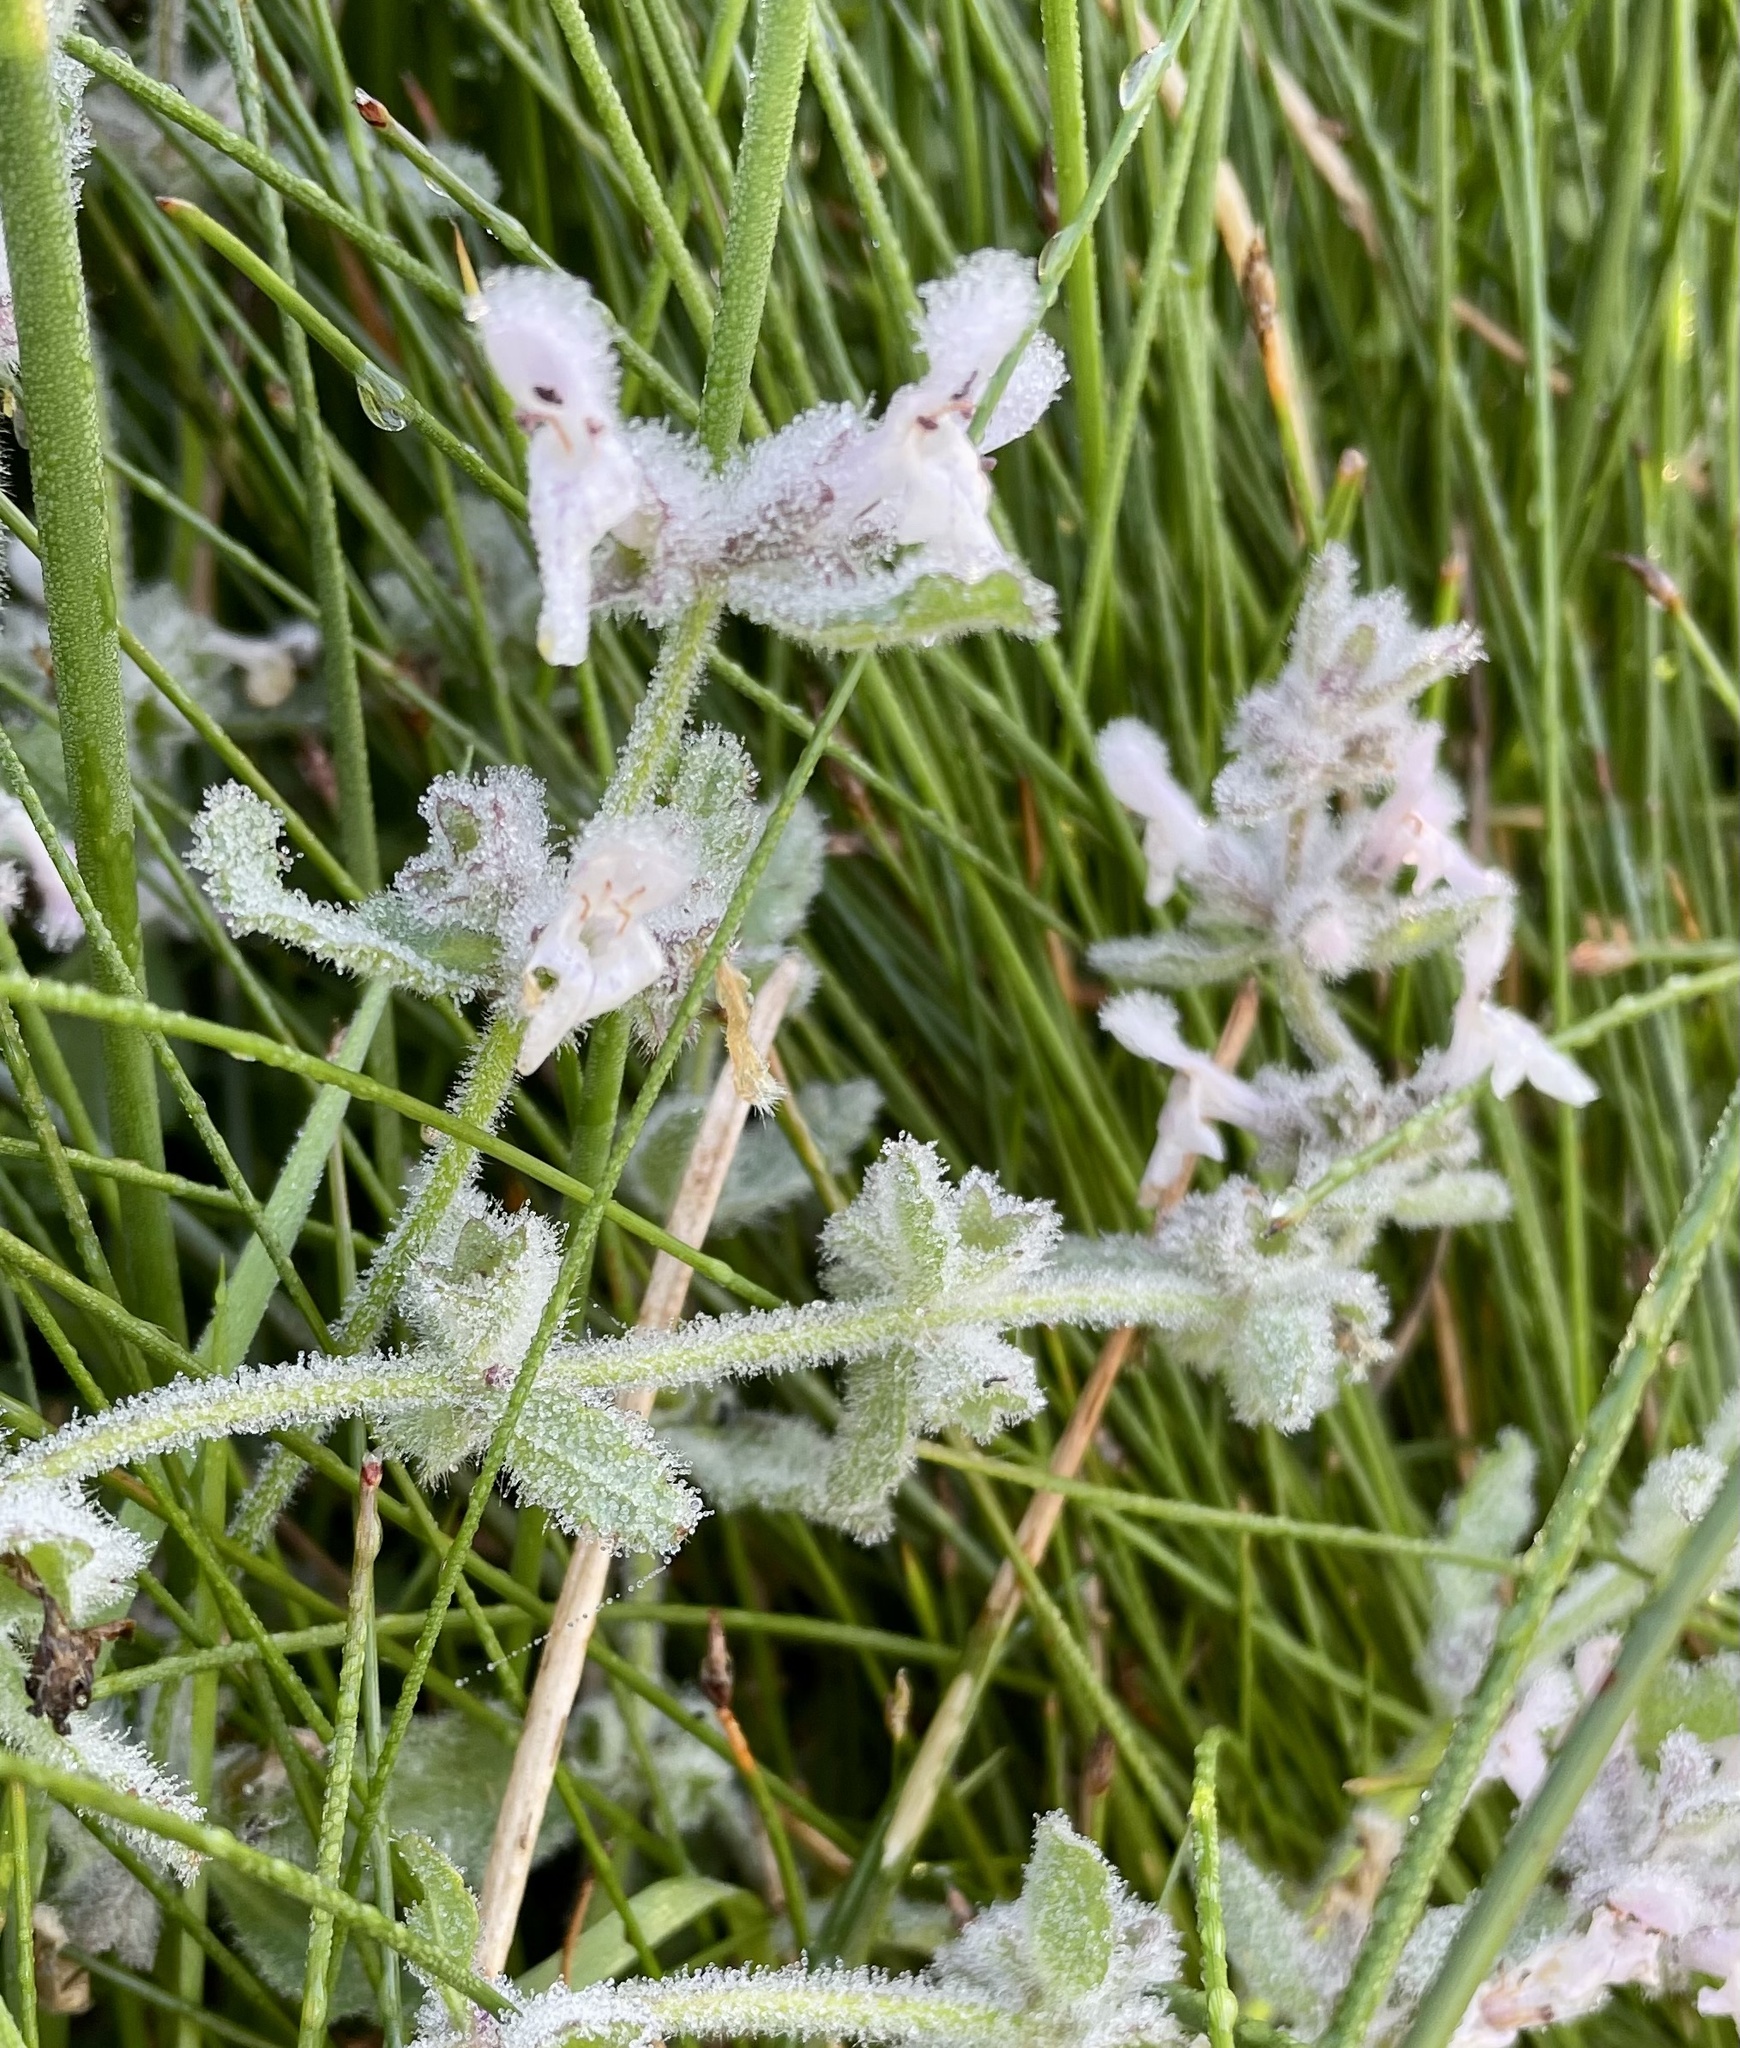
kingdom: Plantae
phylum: Tracheophyta
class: Magnoliopsida
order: Lamiales
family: Lamiaceae
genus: Stachys
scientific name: Stachys ajugoides
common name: Hedge-nettle
